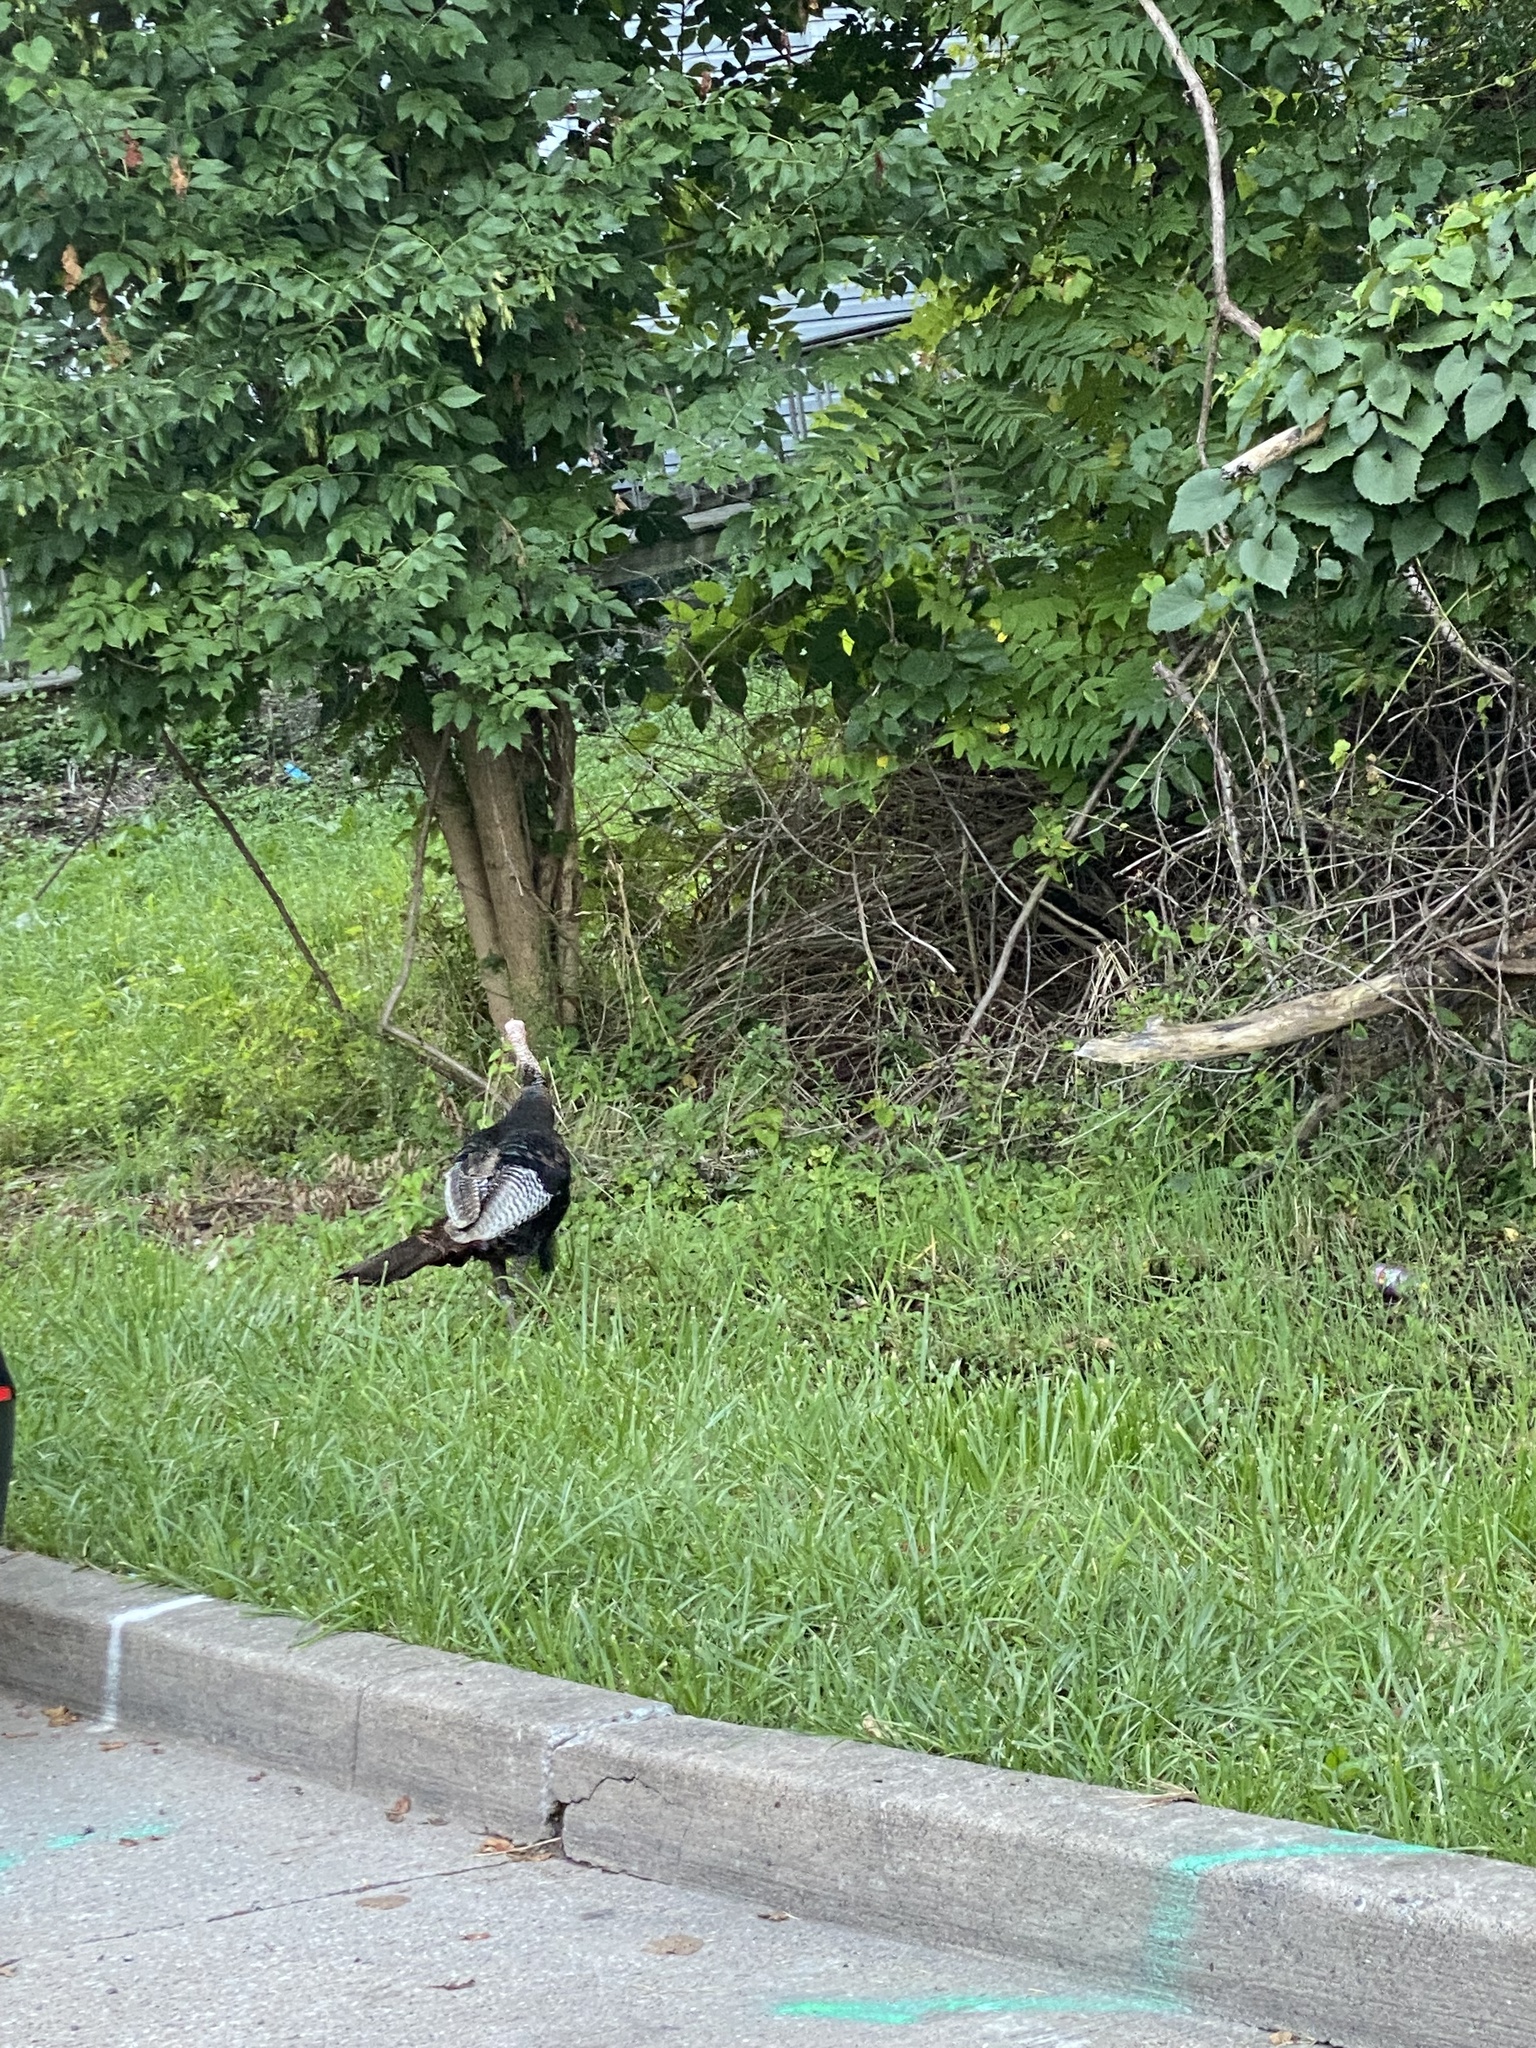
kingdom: Animalia
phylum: Chordata
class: Aves
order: Galliformes
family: Phasianidae
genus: Meleagris
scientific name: Meleagris gallopavo
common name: Wild turkey
